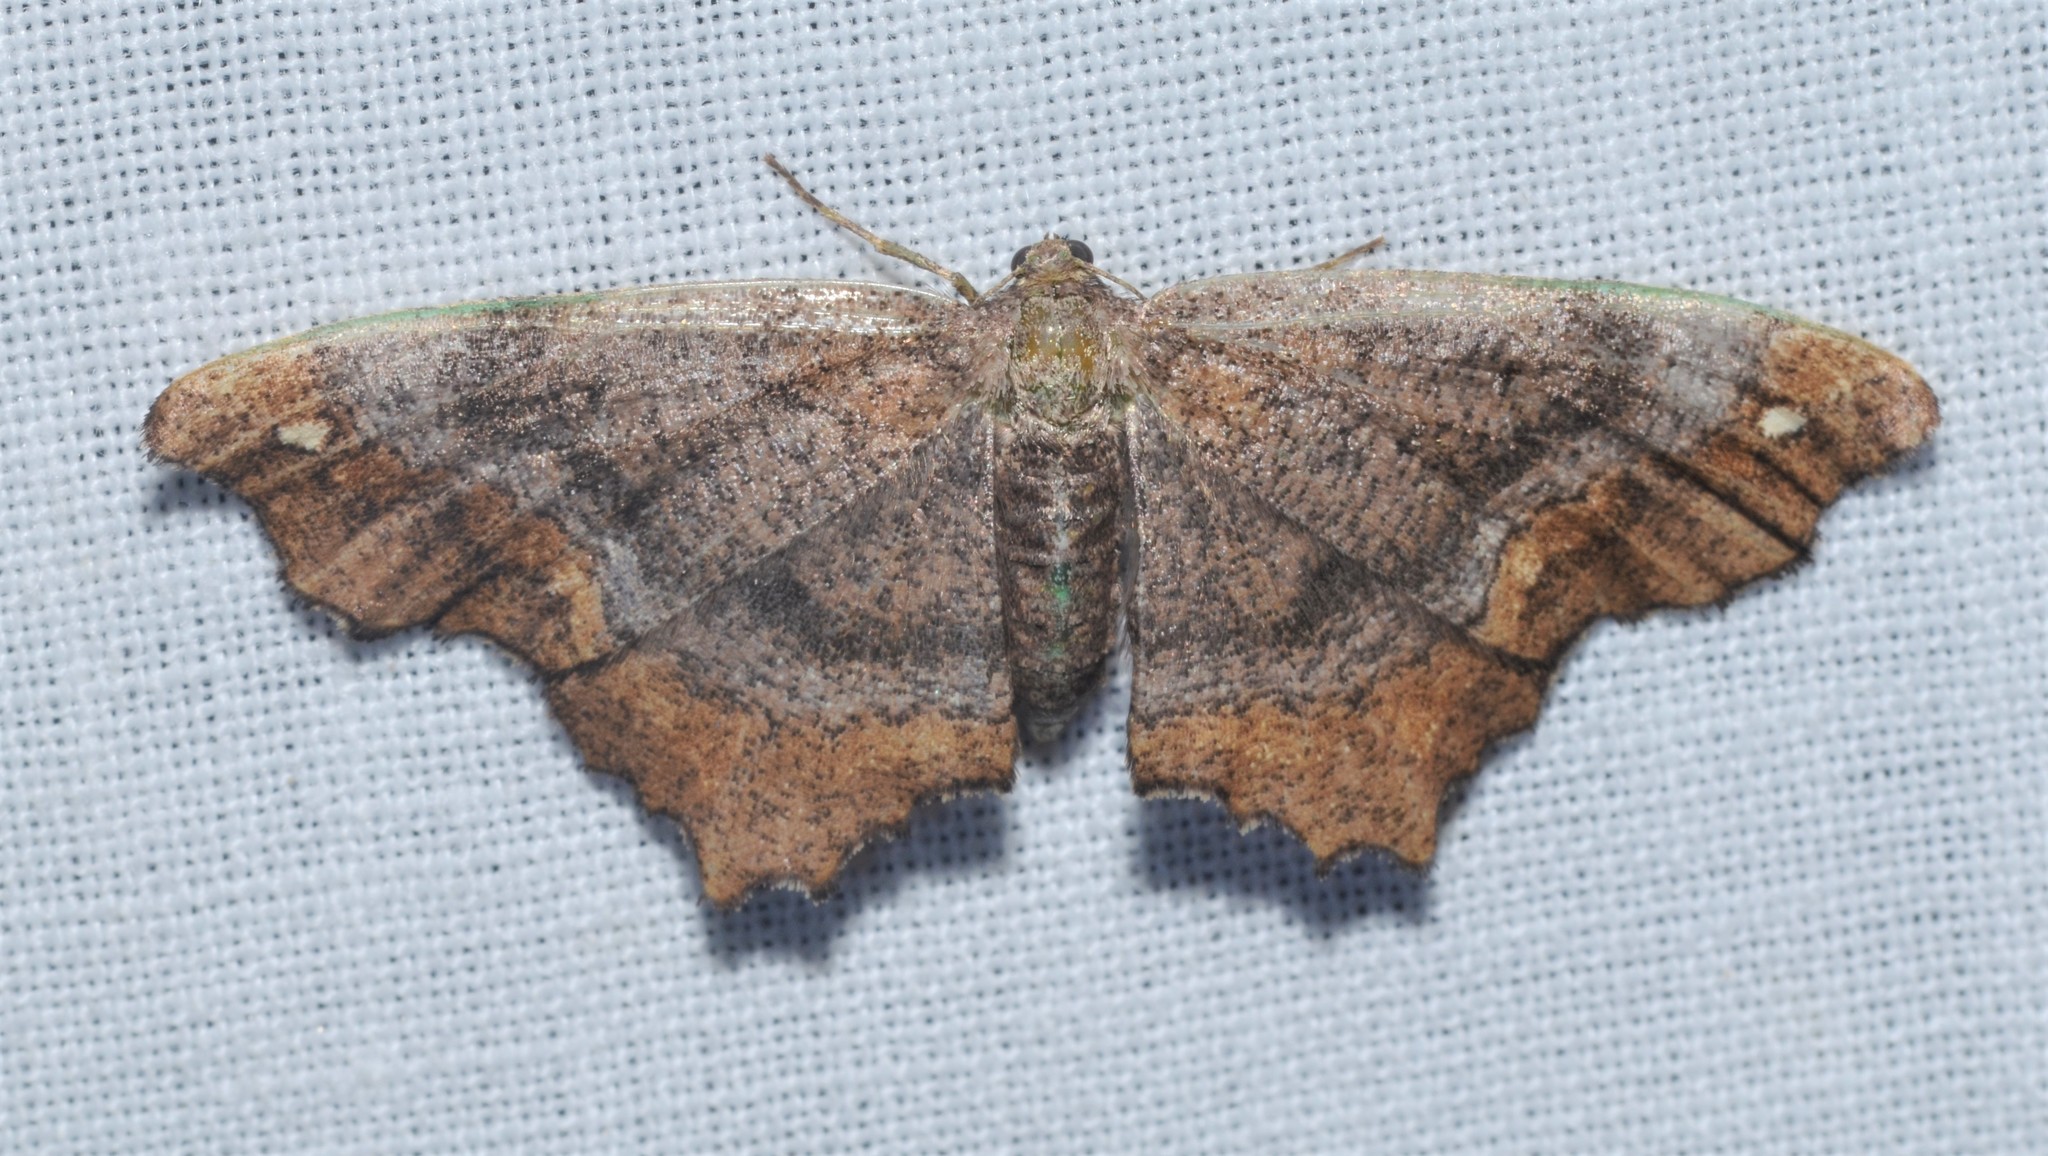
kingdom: Animalia
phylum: Arthropoda
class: Insecta
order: Lepidoptera
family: Geometridae
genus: Hypagyrtis
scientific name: Hypagyrtis unipunctata
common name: One-spotted variant
